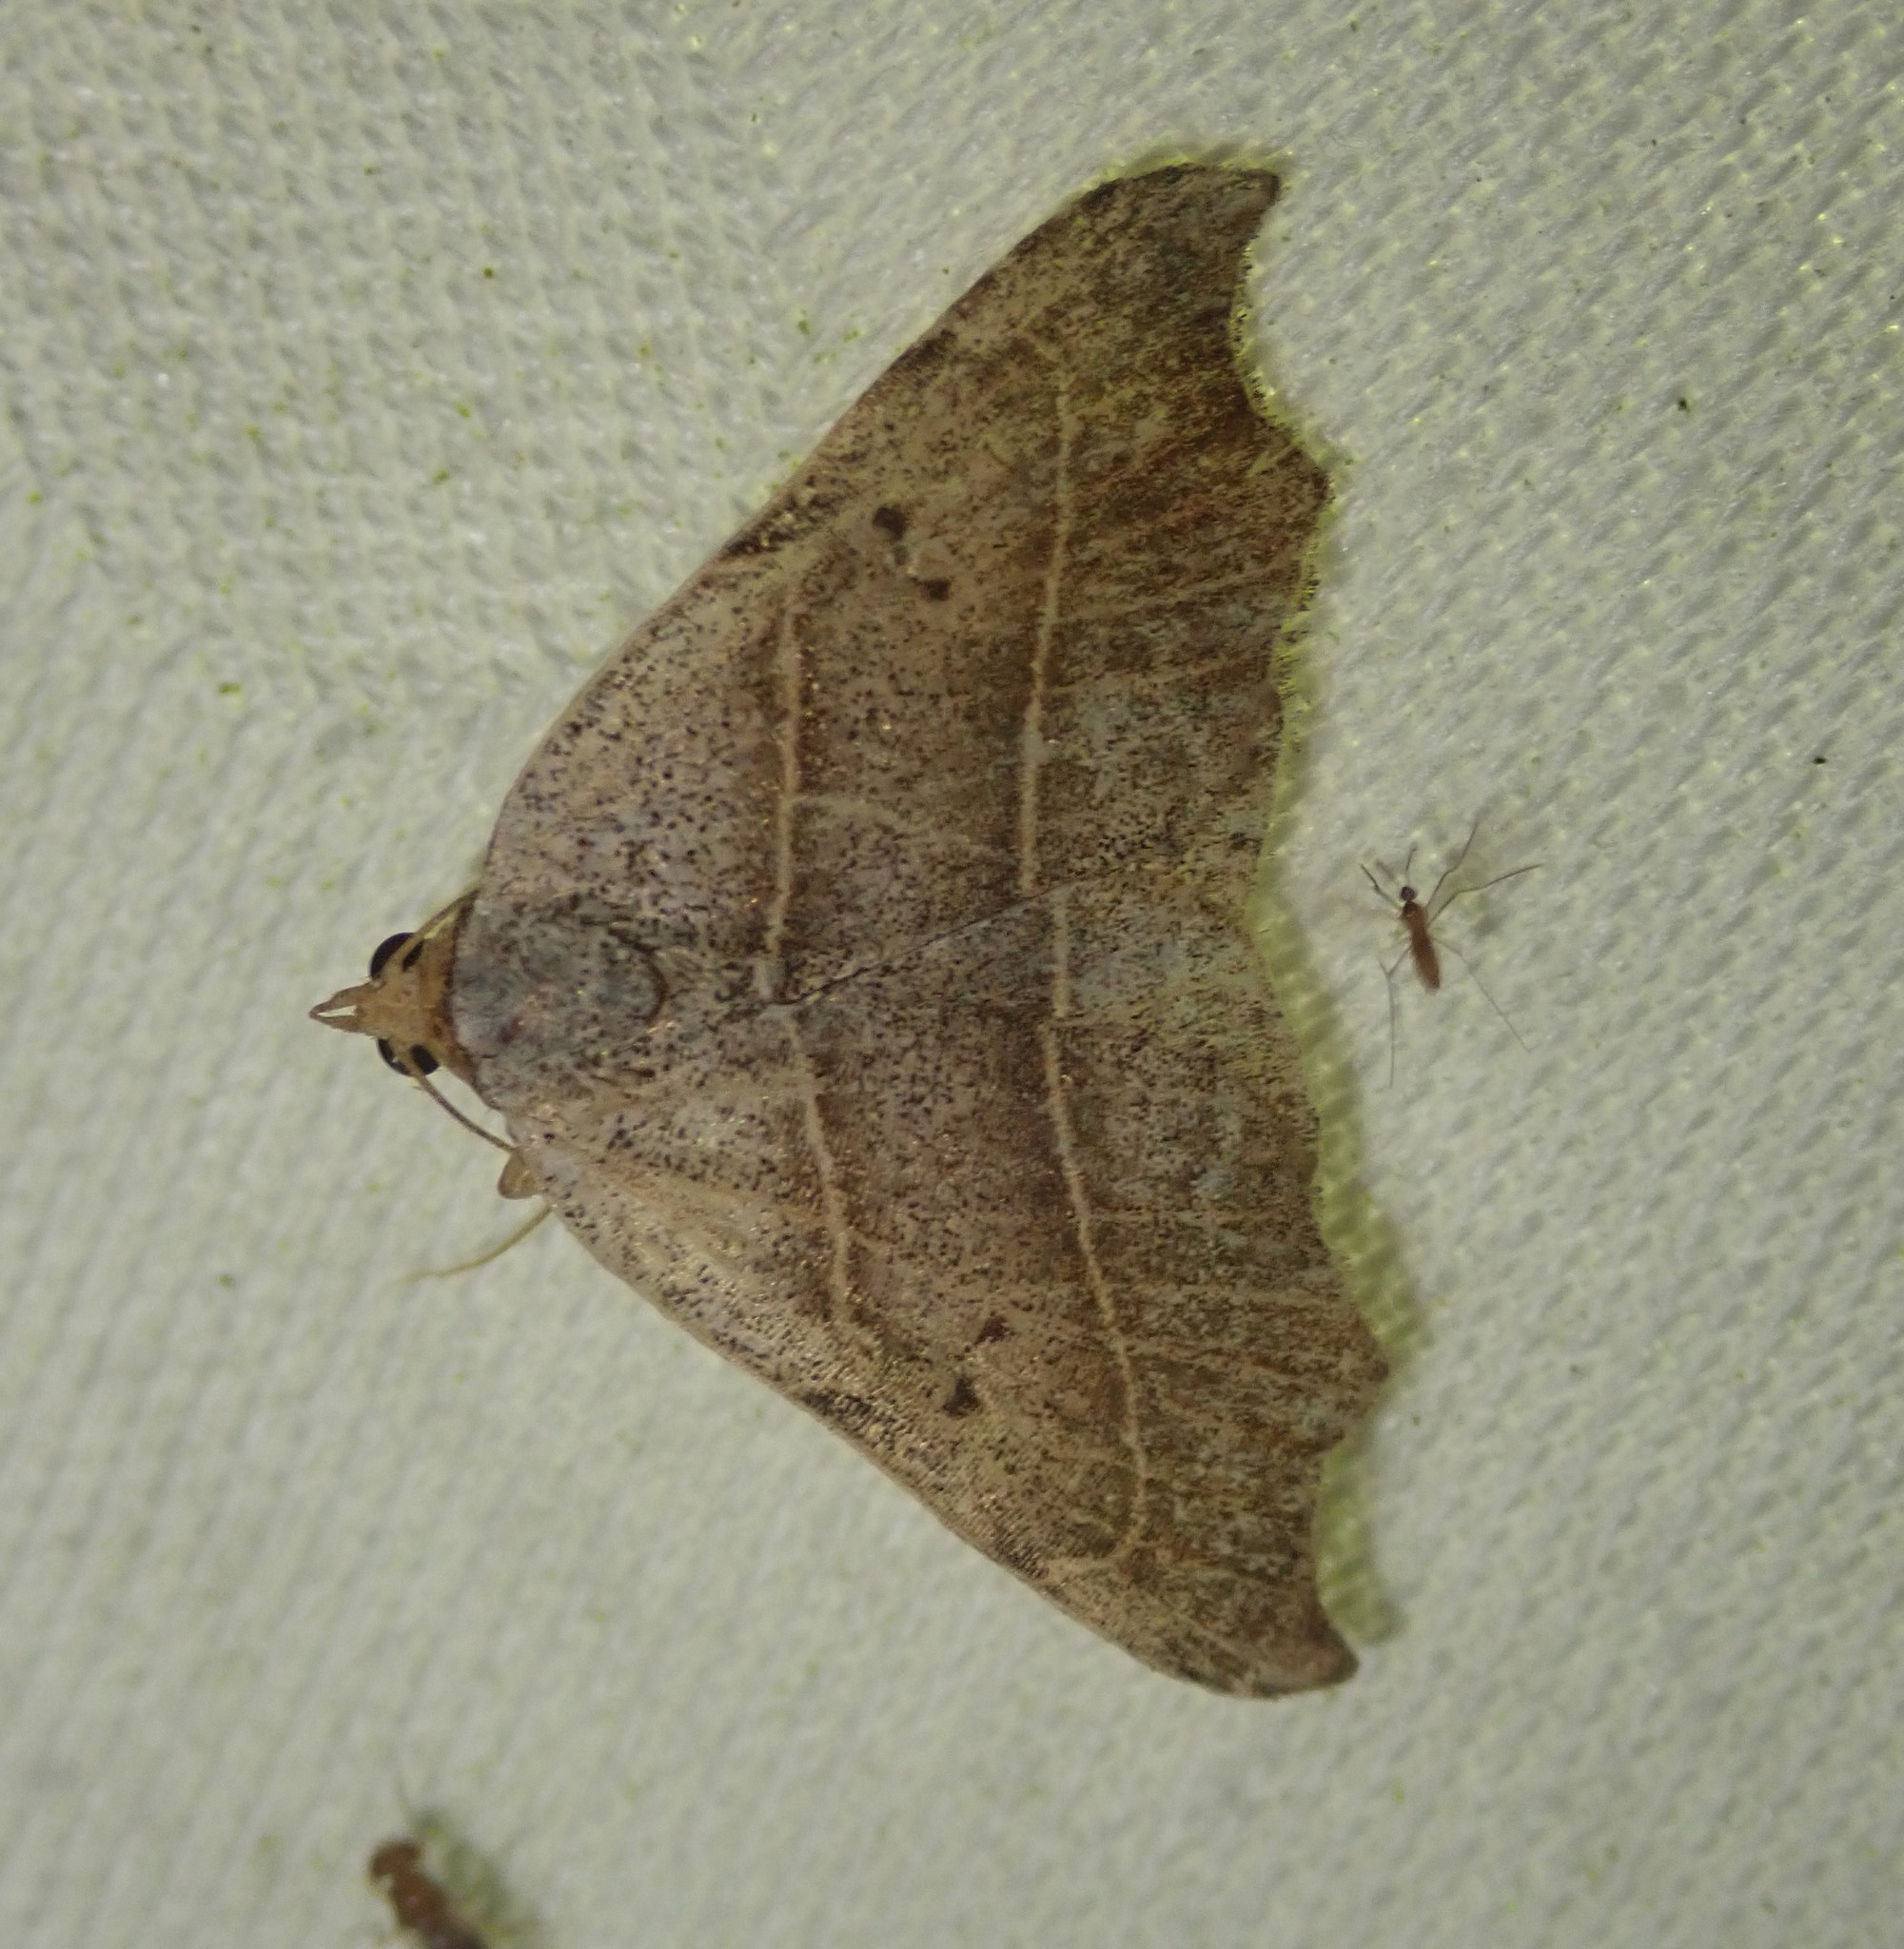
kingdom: Animalia
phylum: Arthropoda
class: Insecta
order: Lepidoptera
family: Erebidae
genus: Laspeyria
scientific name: Laspeyria flexula
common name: Beautiful hook-tip
